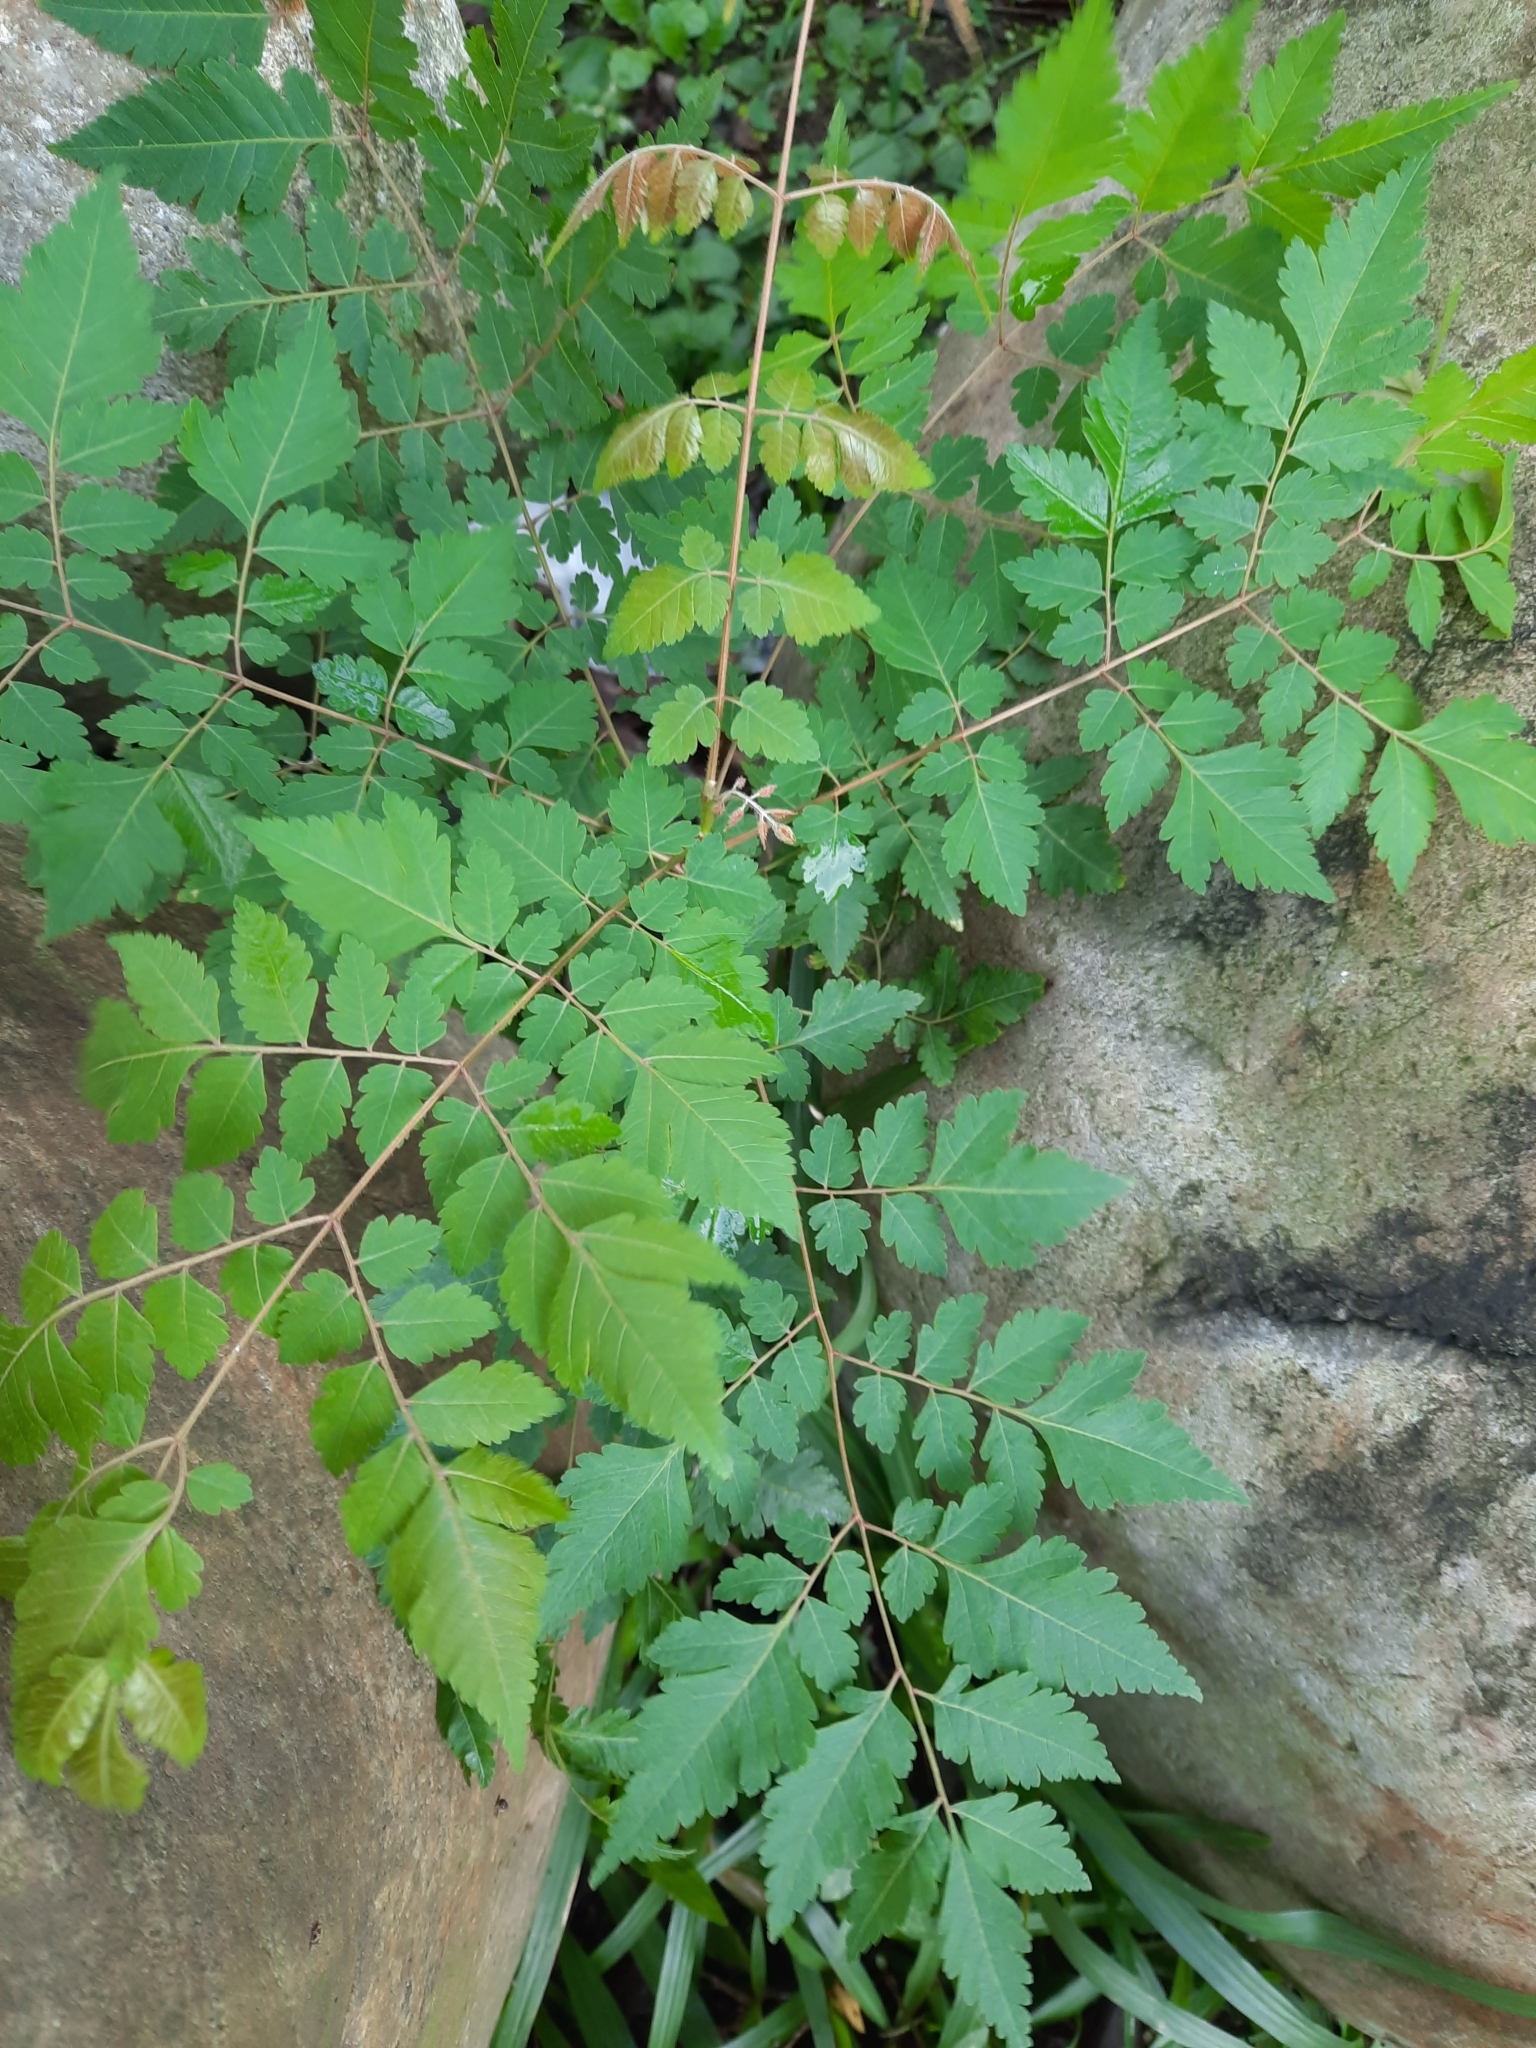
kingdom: Plantae
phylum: Tracheophyta
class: Magnoliopsida
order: Sapindales
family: Sapindaceae
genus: Koelreuteria
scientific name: Koelreuteria elegans
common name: Chinese flame tree
